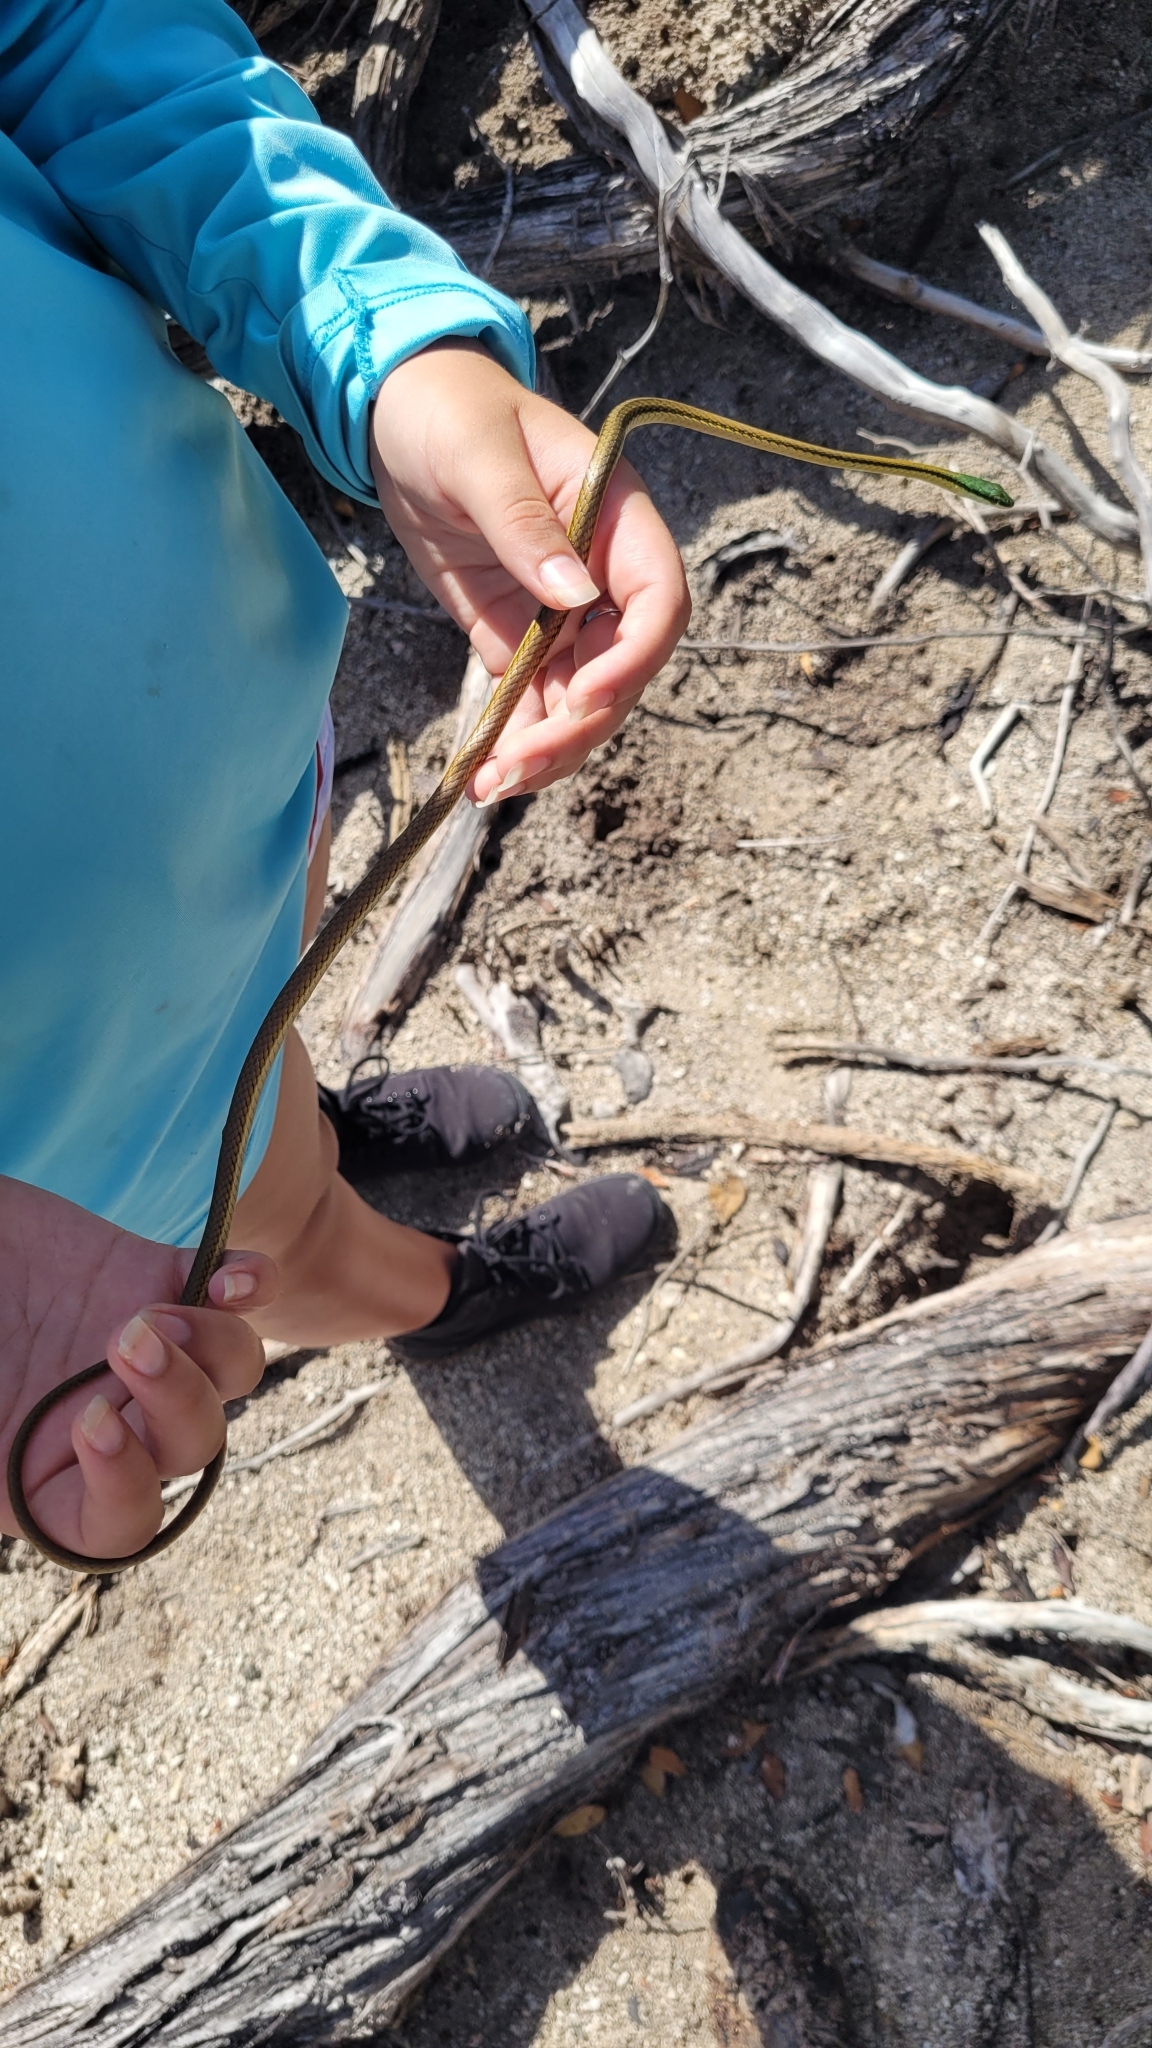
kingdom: Animalia
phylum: Chordata
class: Squamata
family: Colubridae
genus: Leptophis
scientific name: Leptophis mexicanus
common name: Mexican parrot snake
